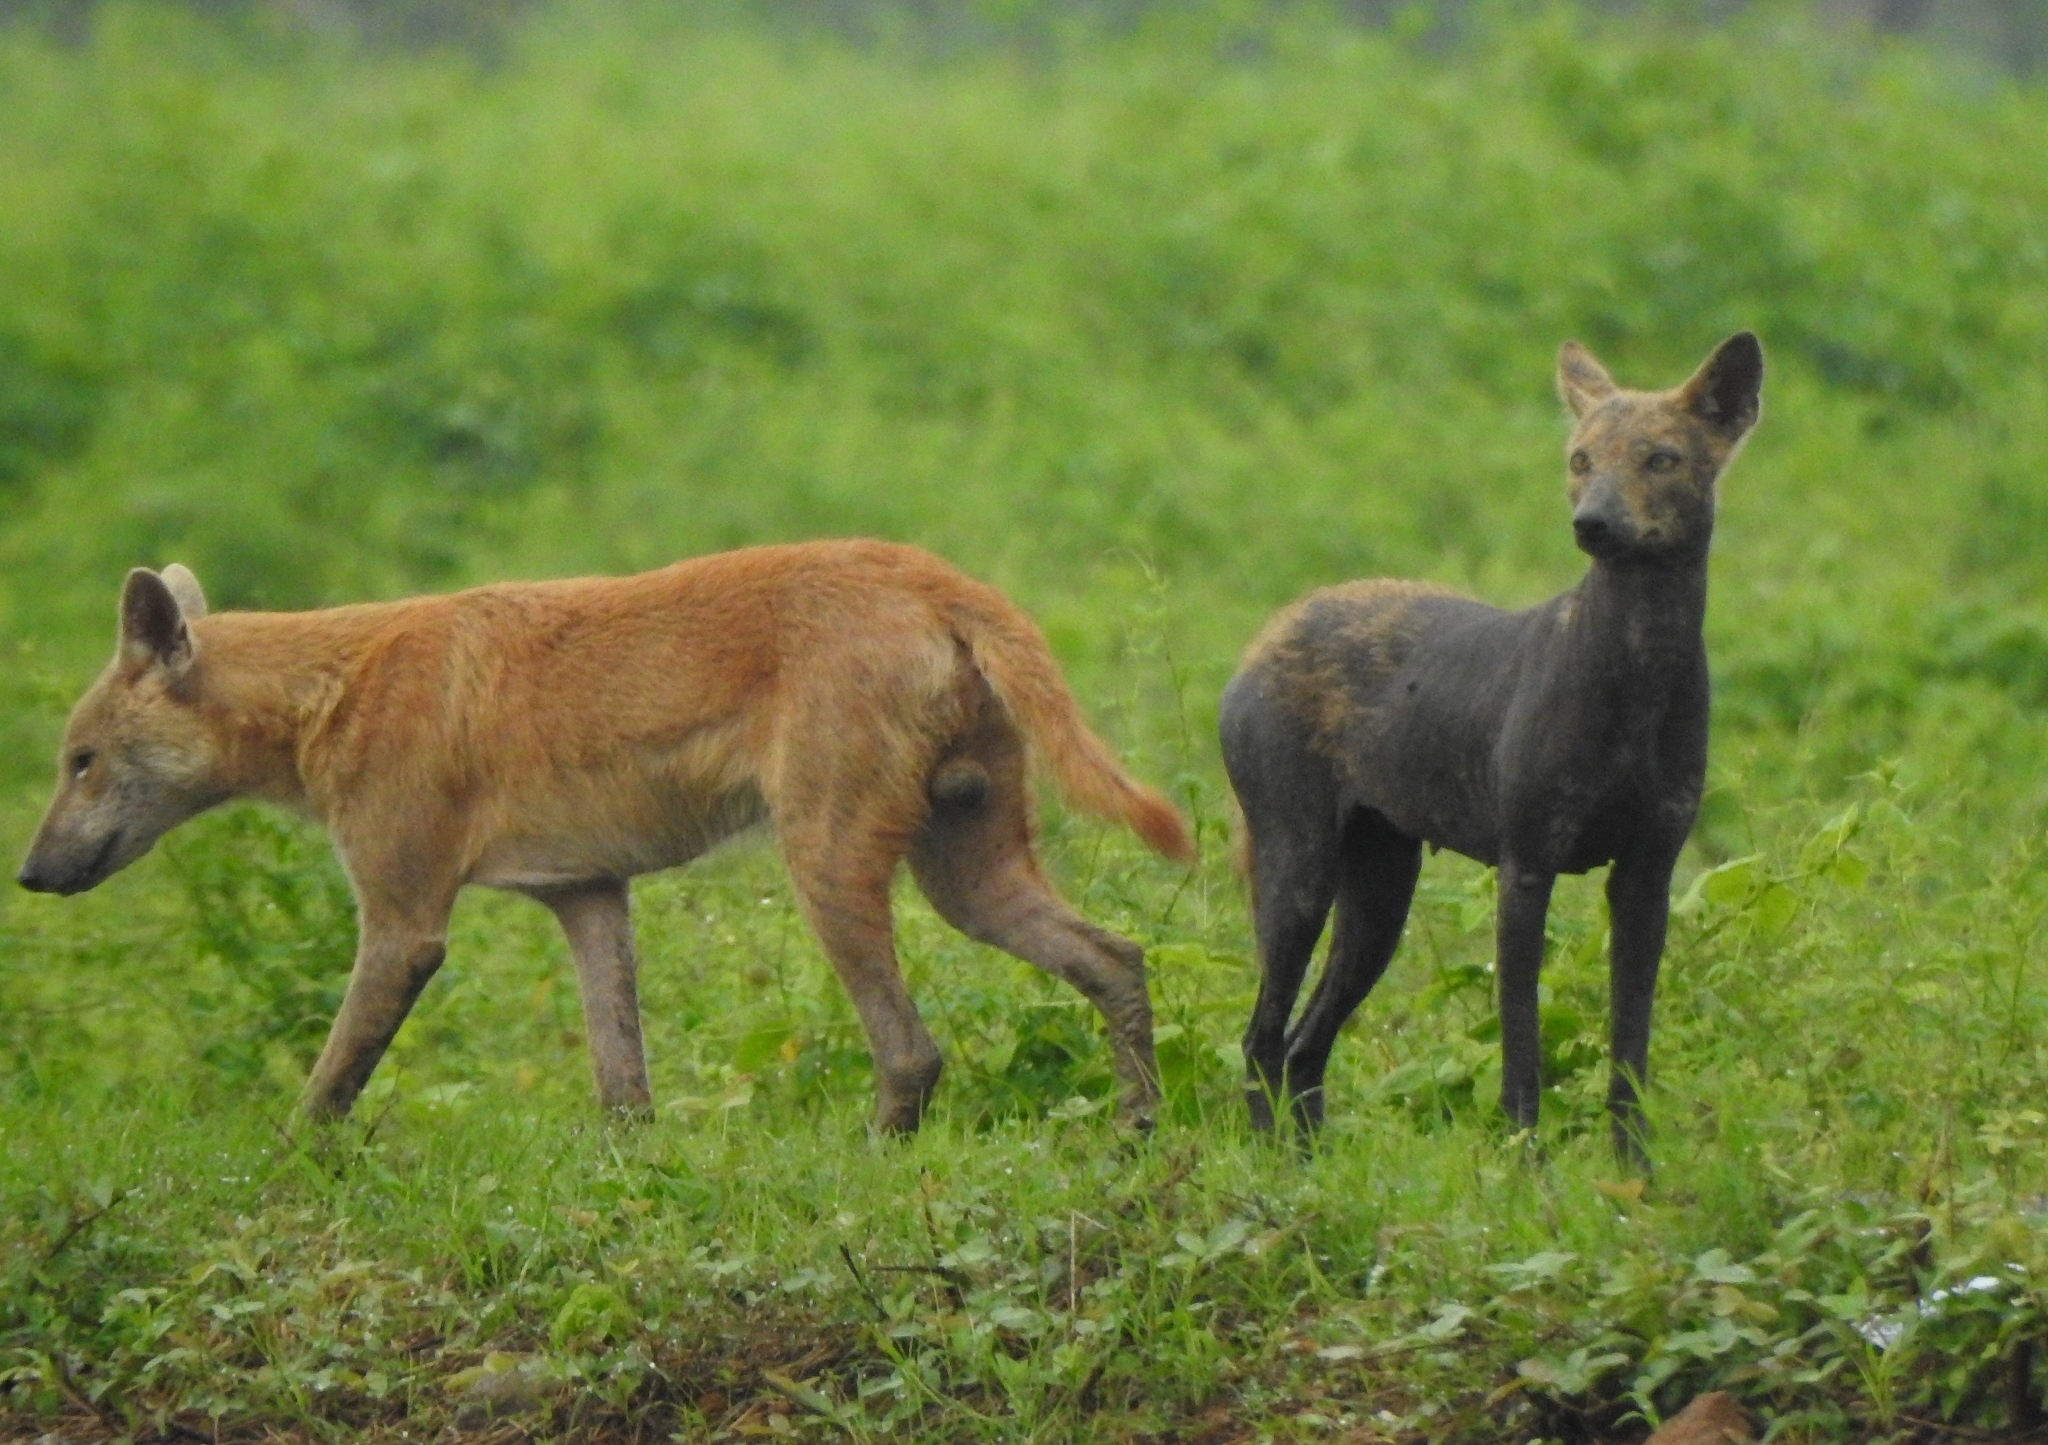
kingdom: Animalia
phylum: Chordata
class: Mammalia
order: Carnivora
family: Canidae
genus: Canis
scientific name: Canis lupus
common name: Gray wolf
